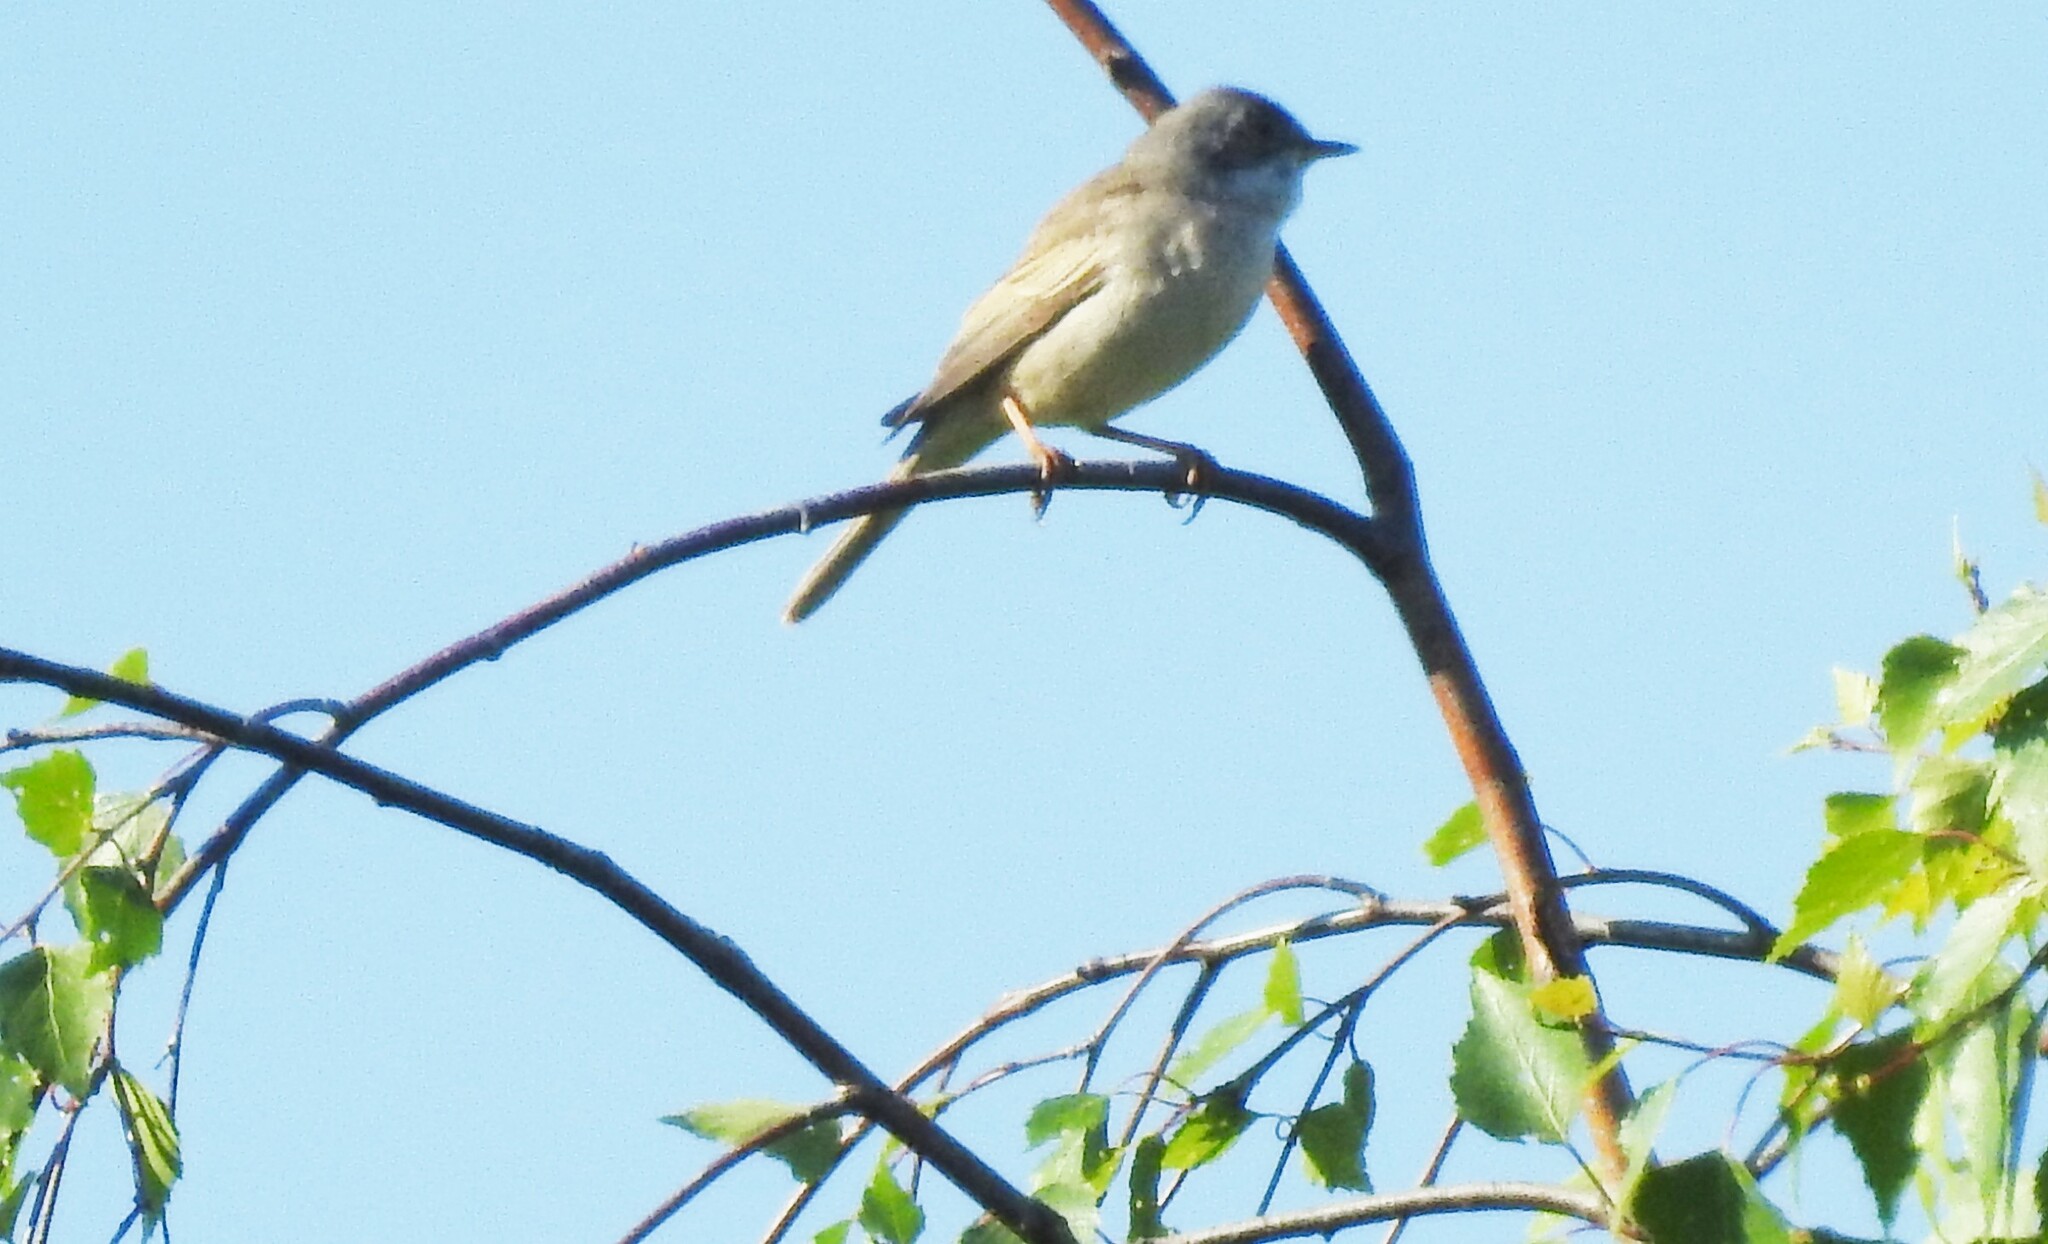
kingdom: Animalia
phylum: Chordata
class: Aves
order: Passeriformes
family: Sylviidae
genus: Sylvia
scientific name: Sylvia communis
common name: Common whitethroat
